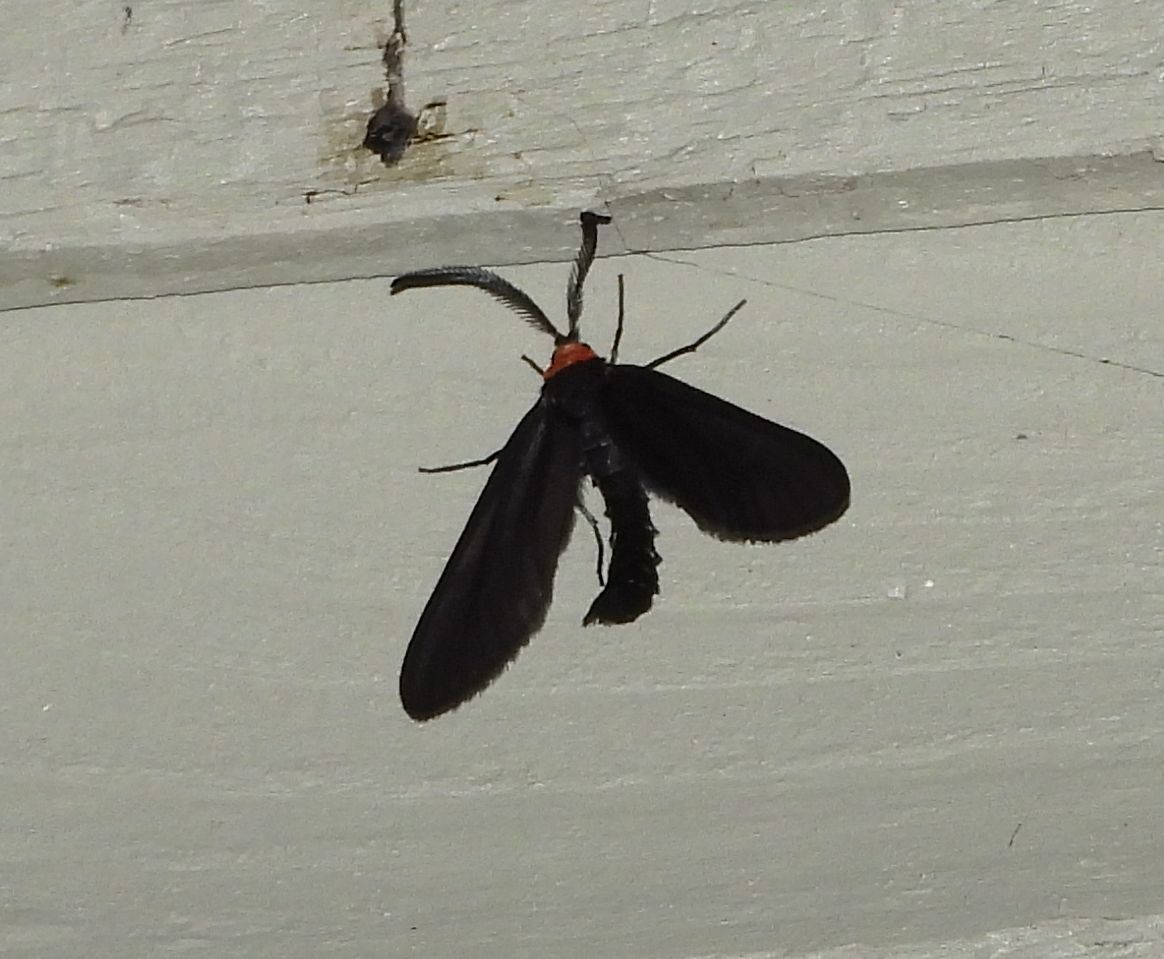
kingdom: Animalia
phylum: Arthropoda
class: Insecta
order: Lepidoptera
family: Zygaenidae
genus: Harrisina
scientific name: Harrisina americana
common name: Grapeleaf skeletonizer moth
